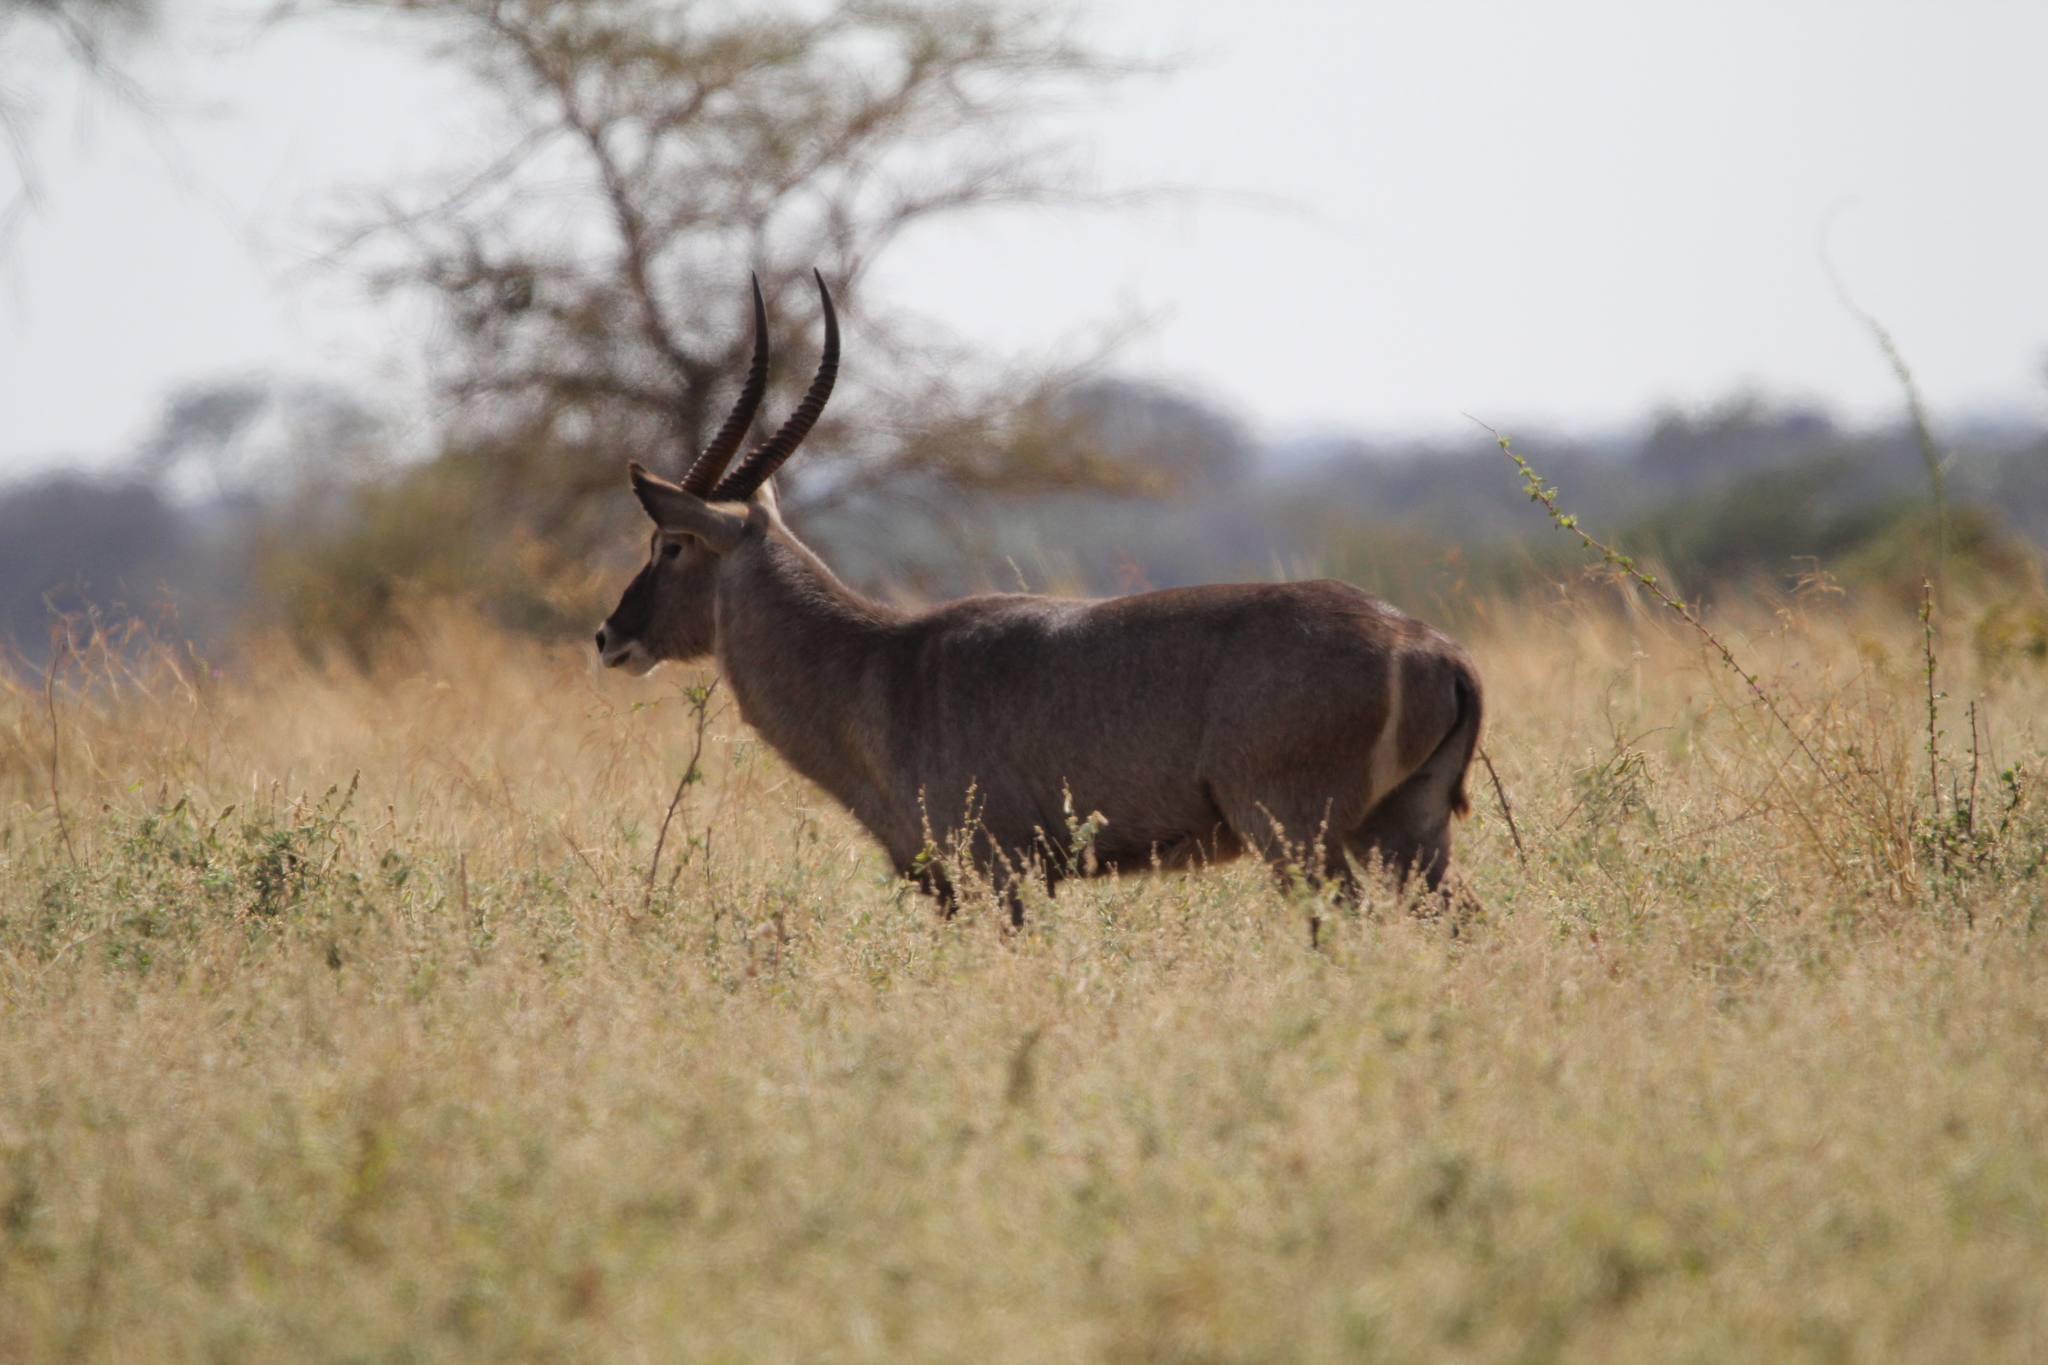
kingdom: Animalia
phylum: Chordata
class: Mammalia
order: Artiodactyla
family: Bovidae
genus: Kobus
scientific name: Kobus ellipsiprymnus
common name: Waterbuck
